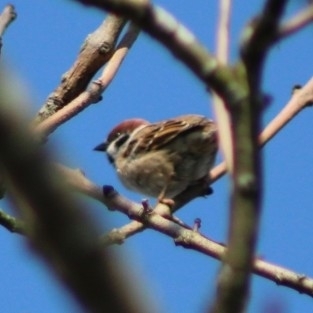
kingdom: Animalia
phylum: Chordata
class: Aves
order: Passeriformes
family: Passeridae
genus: Passer
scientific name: Passer montanus
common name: Eurasian tree sparrow
